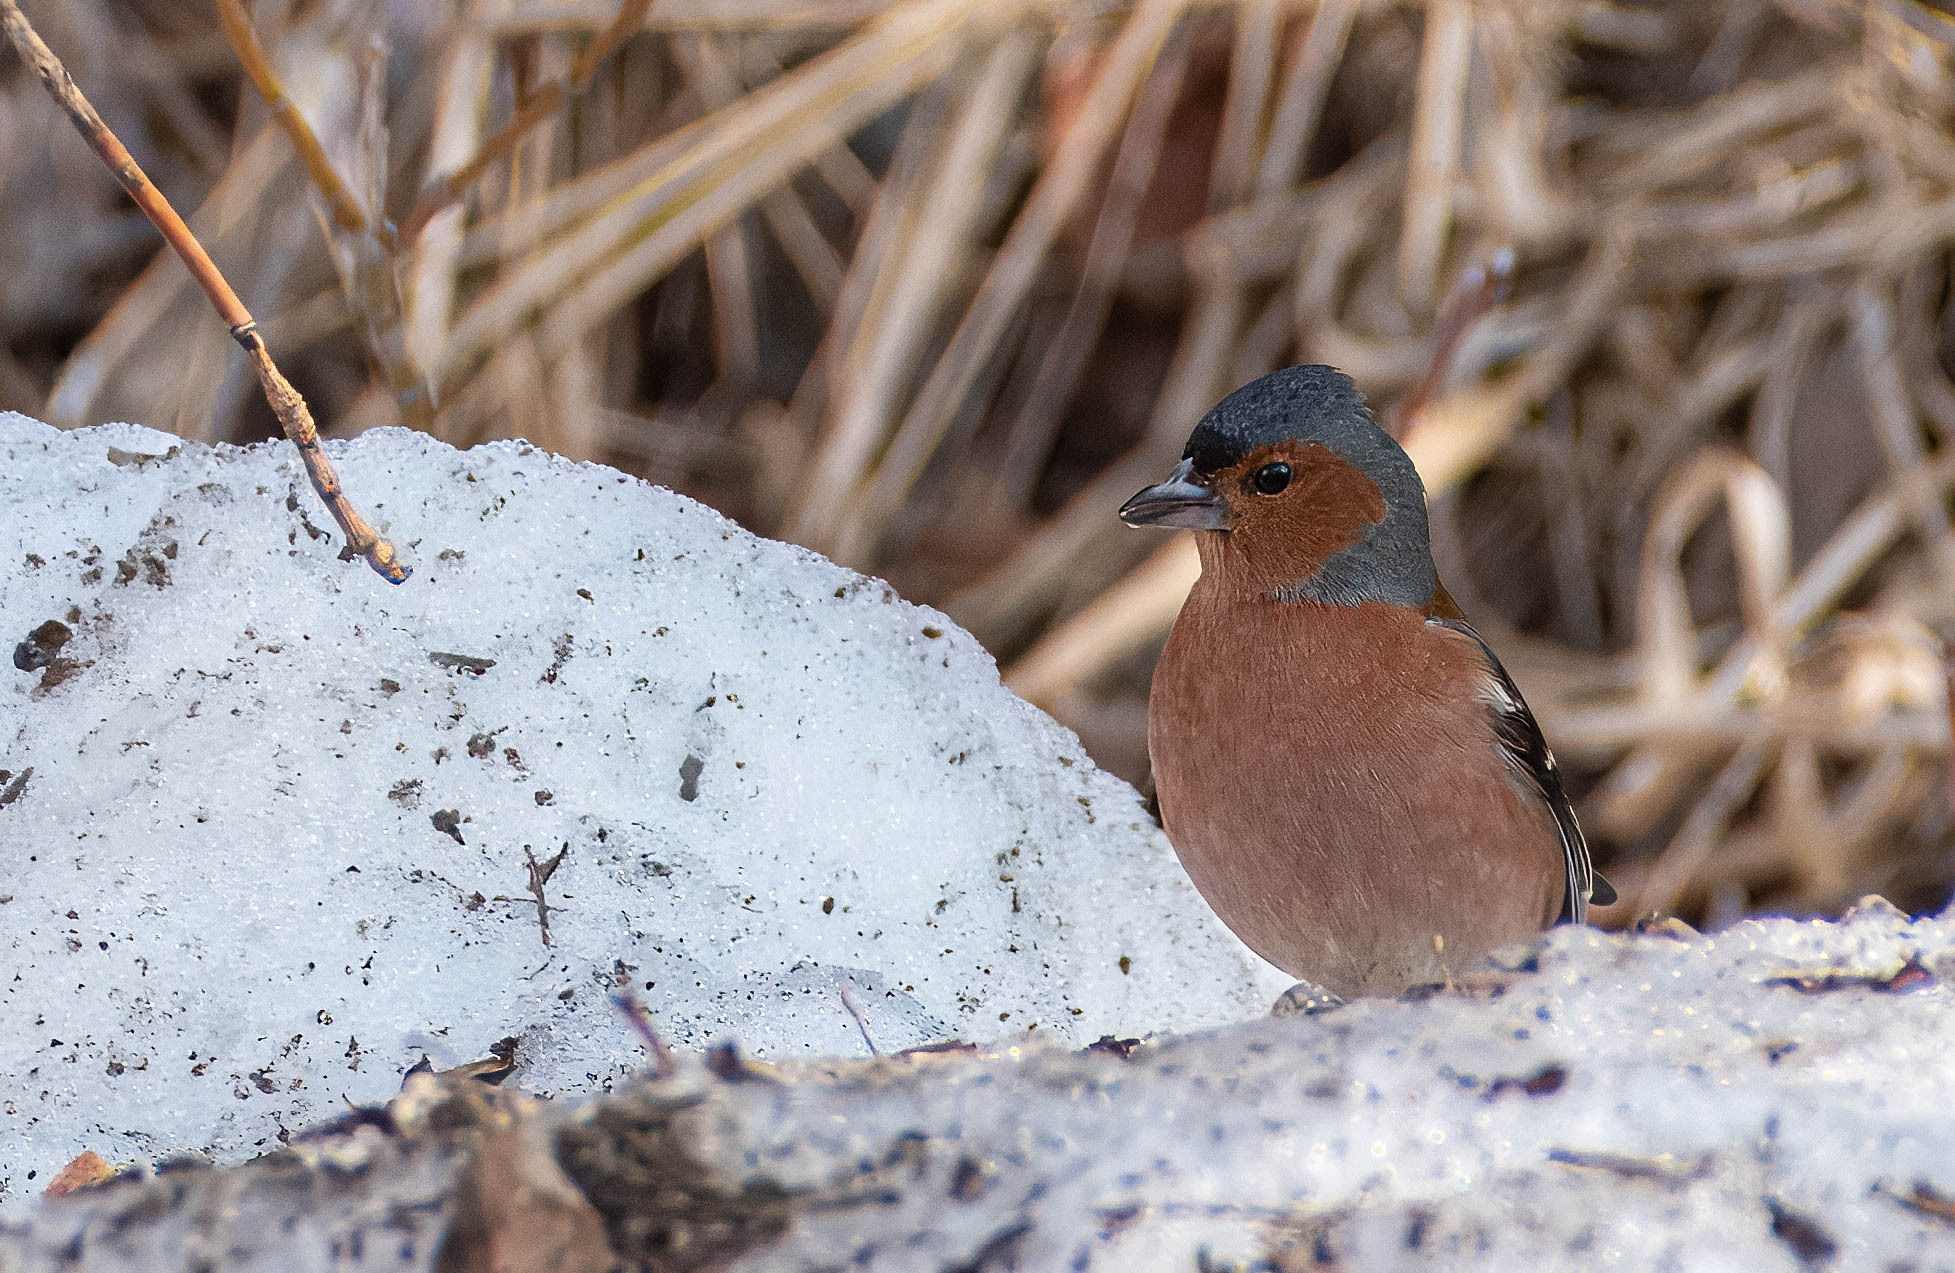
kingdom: Animalia
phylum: Chordata
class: Aves
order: Passeriformes
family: Fringillidae
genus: Fringilla
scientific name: Fringilla coelebs
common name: Common chaffinch
